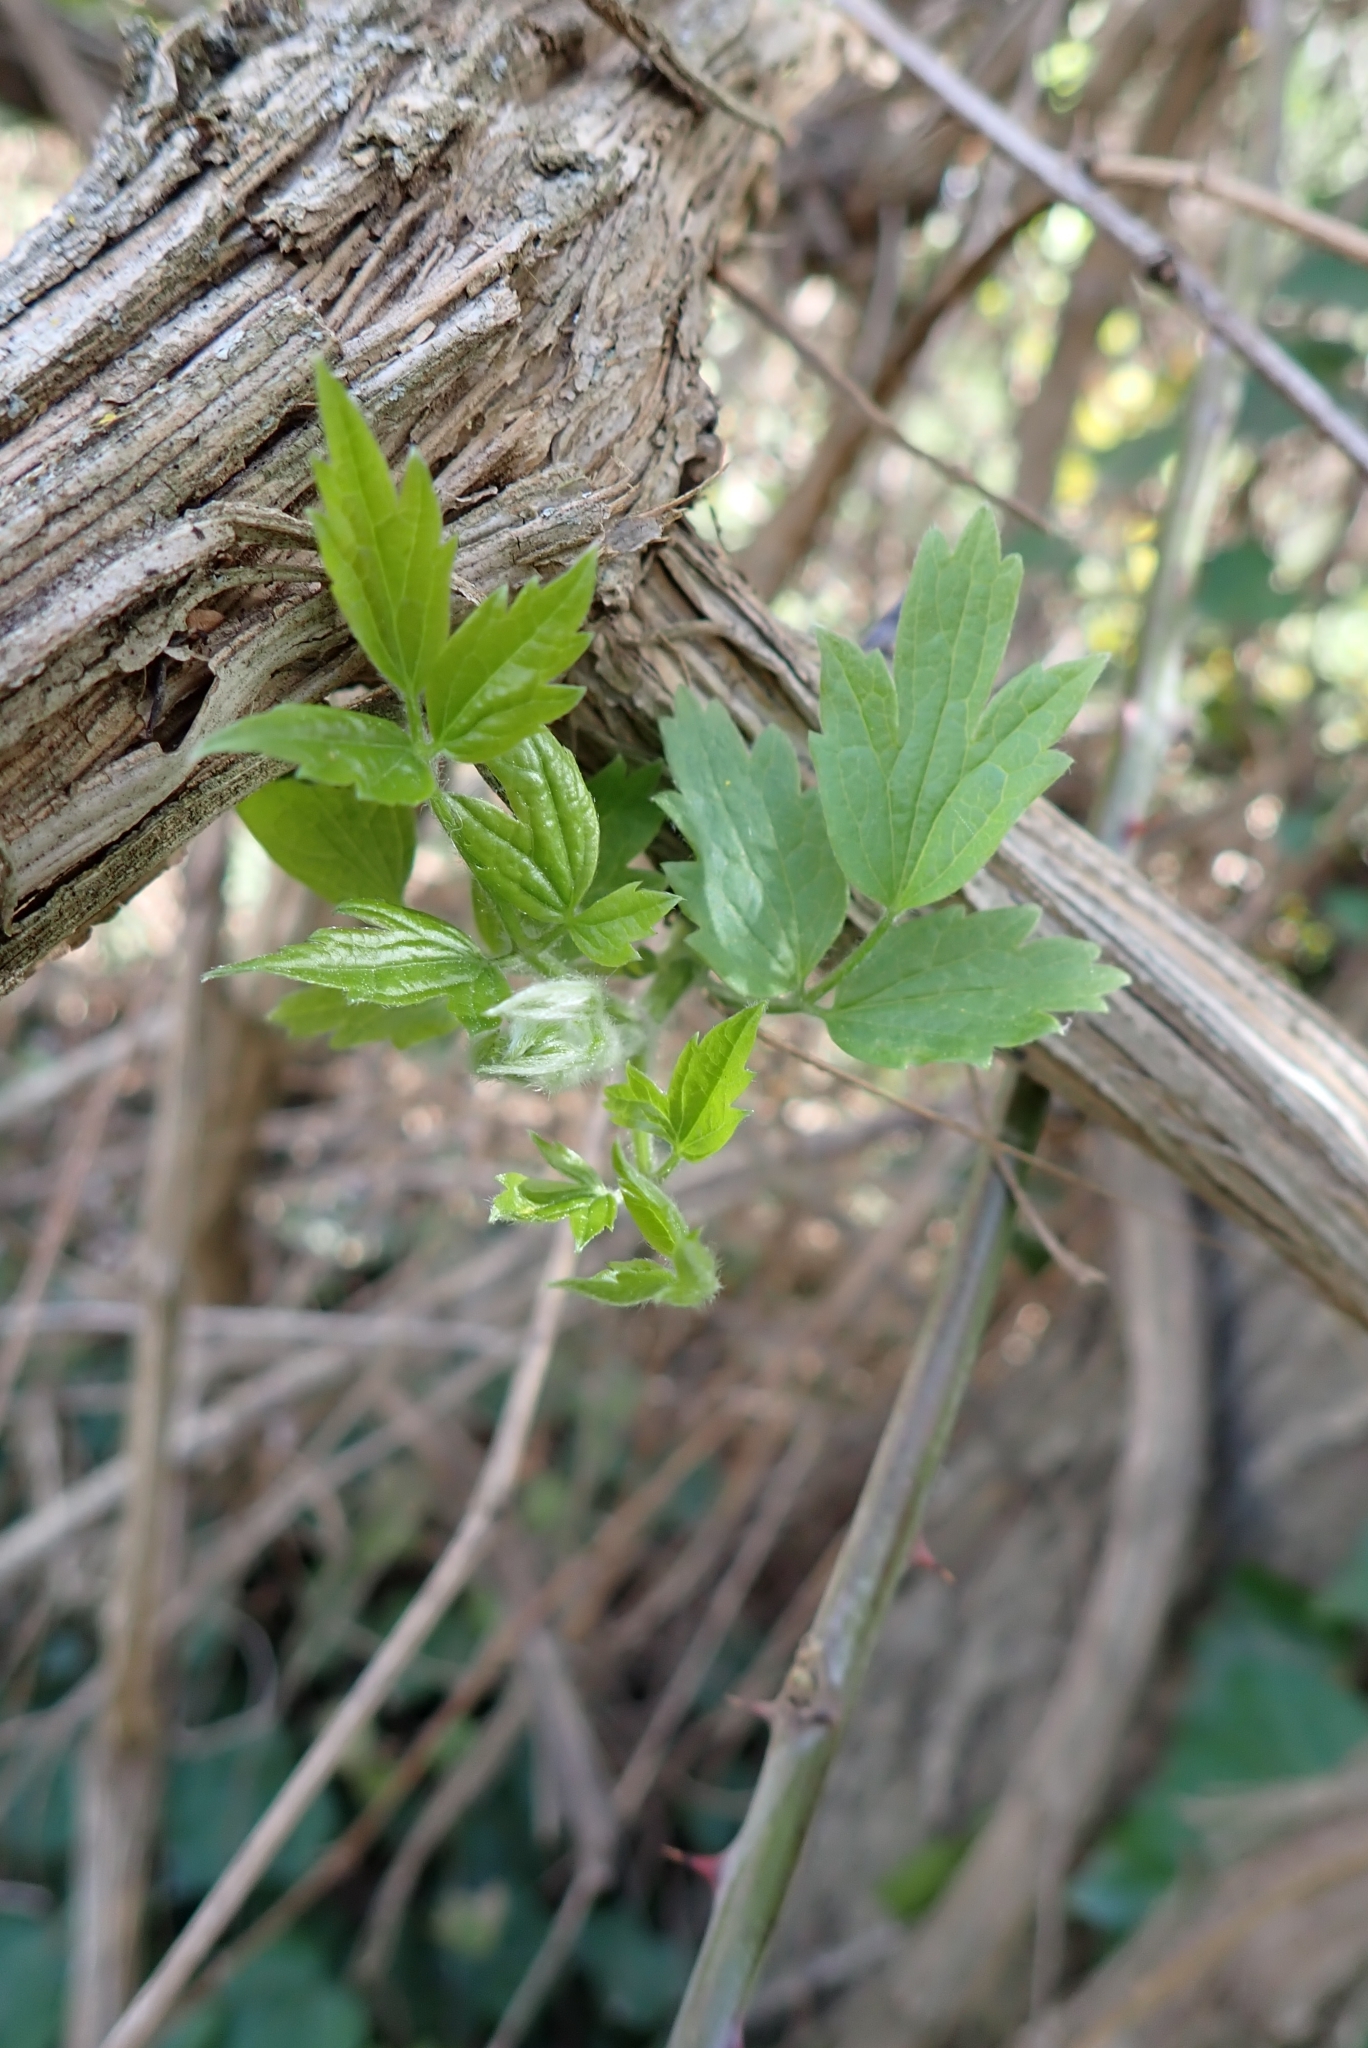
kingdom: Plantae
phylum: Tracheophyta
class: Magnoliopsida
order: Ranunculales
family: Ranunculaceae
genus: Clematis
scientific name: Clematis vitalba
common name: Evergreen clematis
